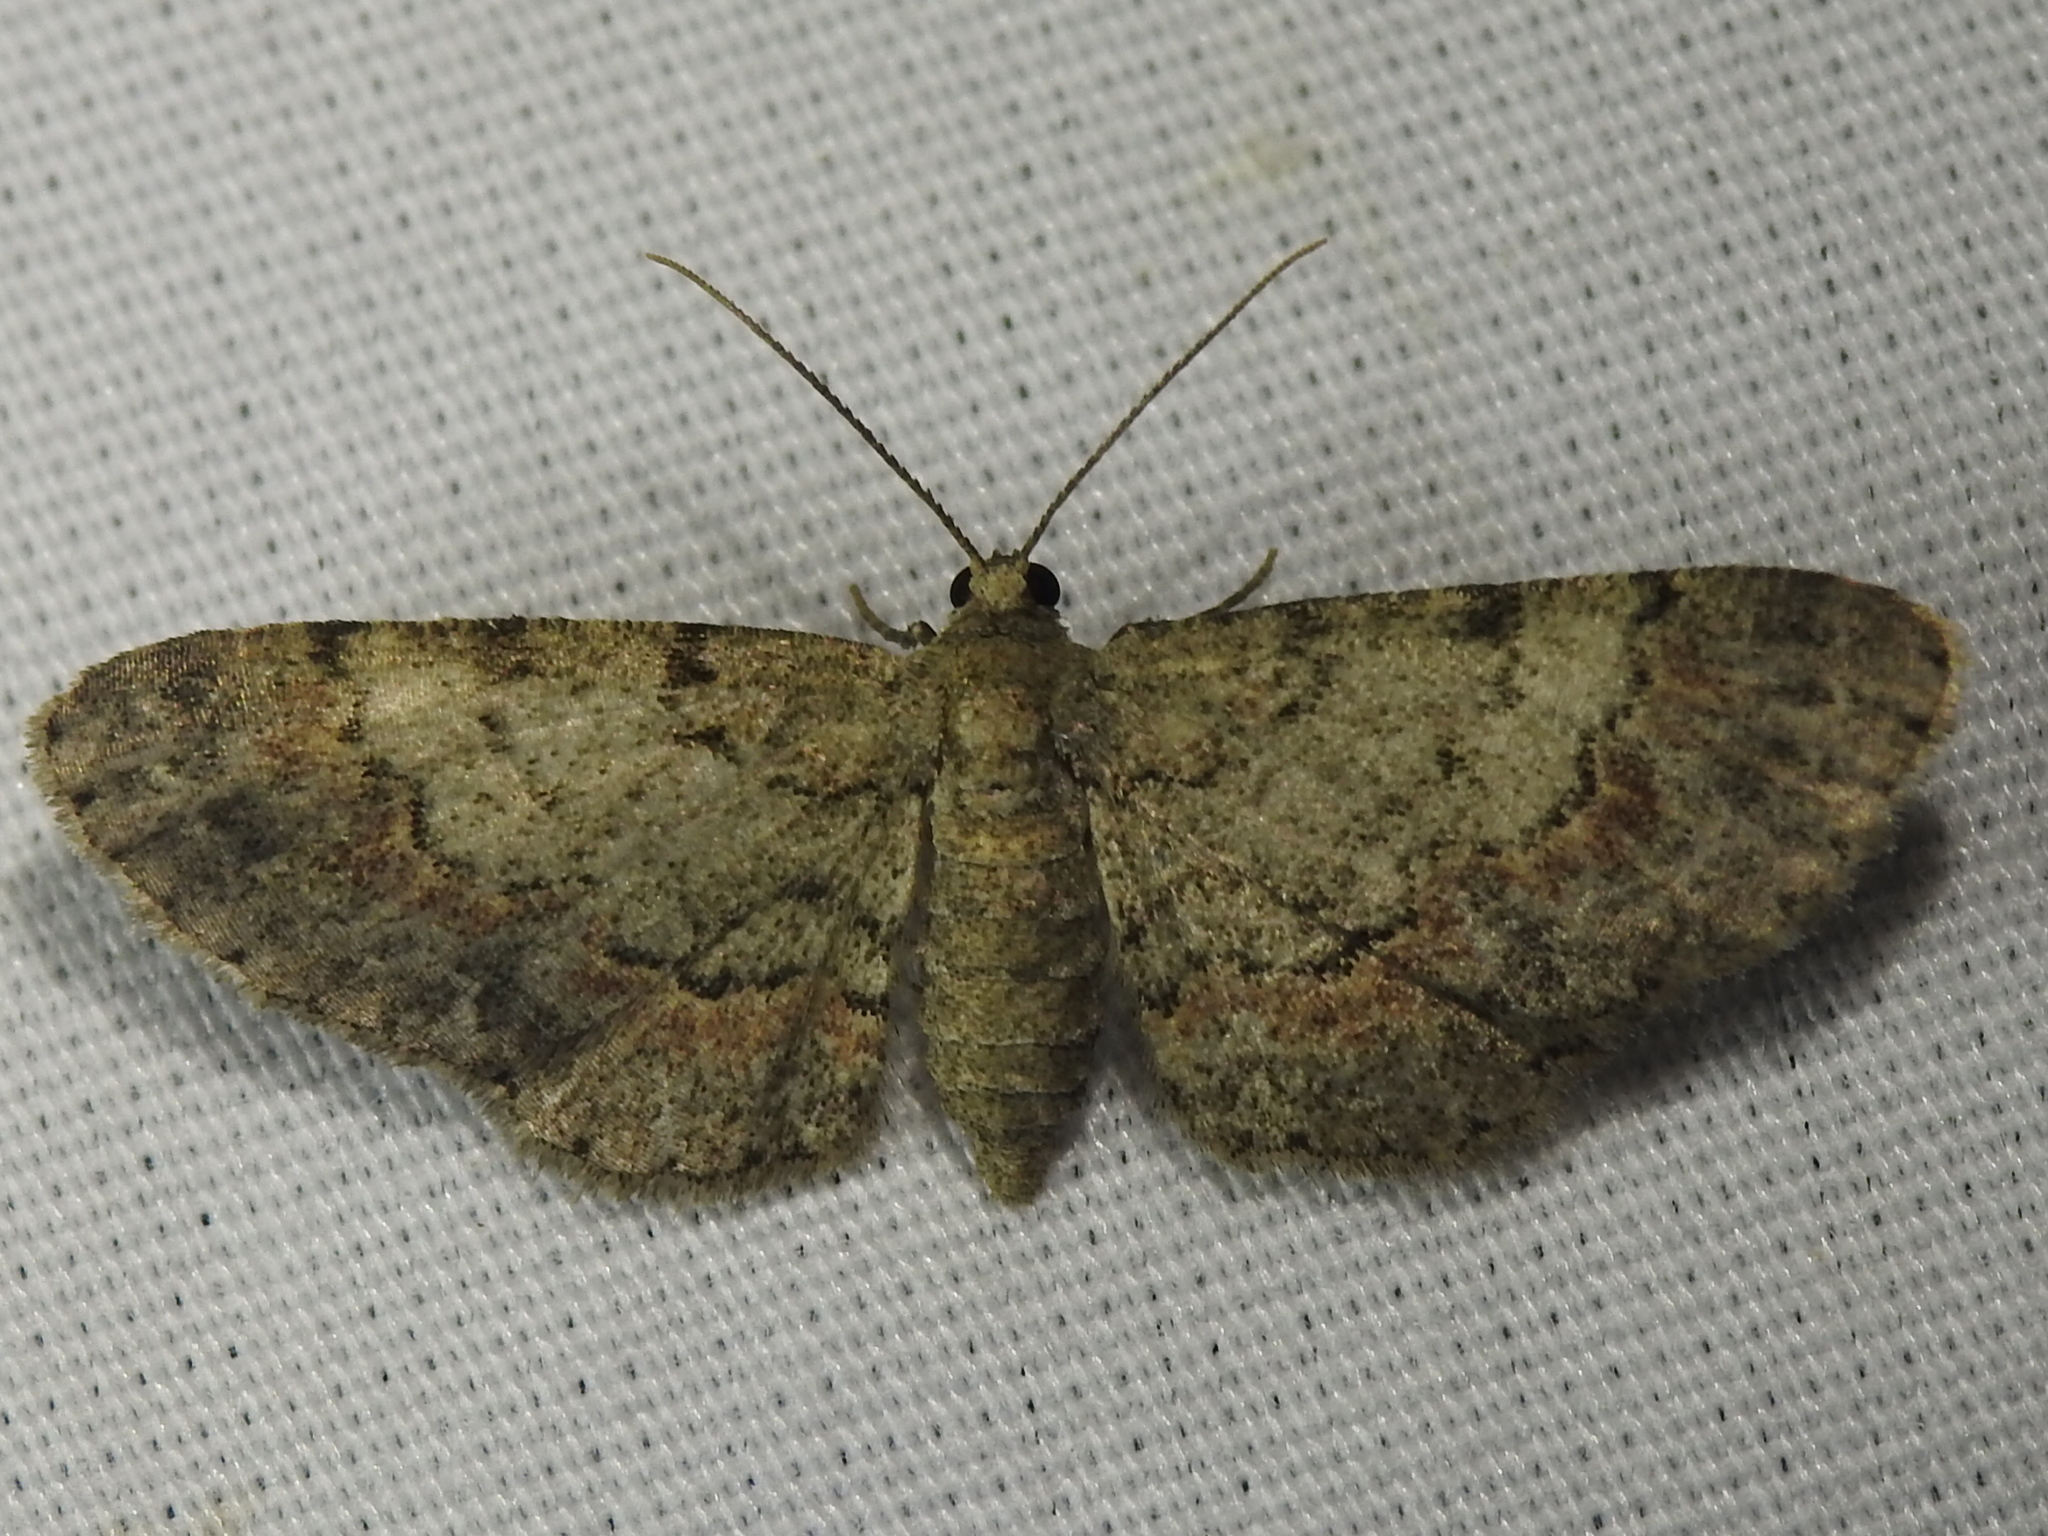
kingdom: Animalia
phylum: Arthropoda
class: Insecta
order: Lepidoptera
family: Geometridae
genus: Glenoides
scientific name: Glenoides texanaria
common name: Texas gray
